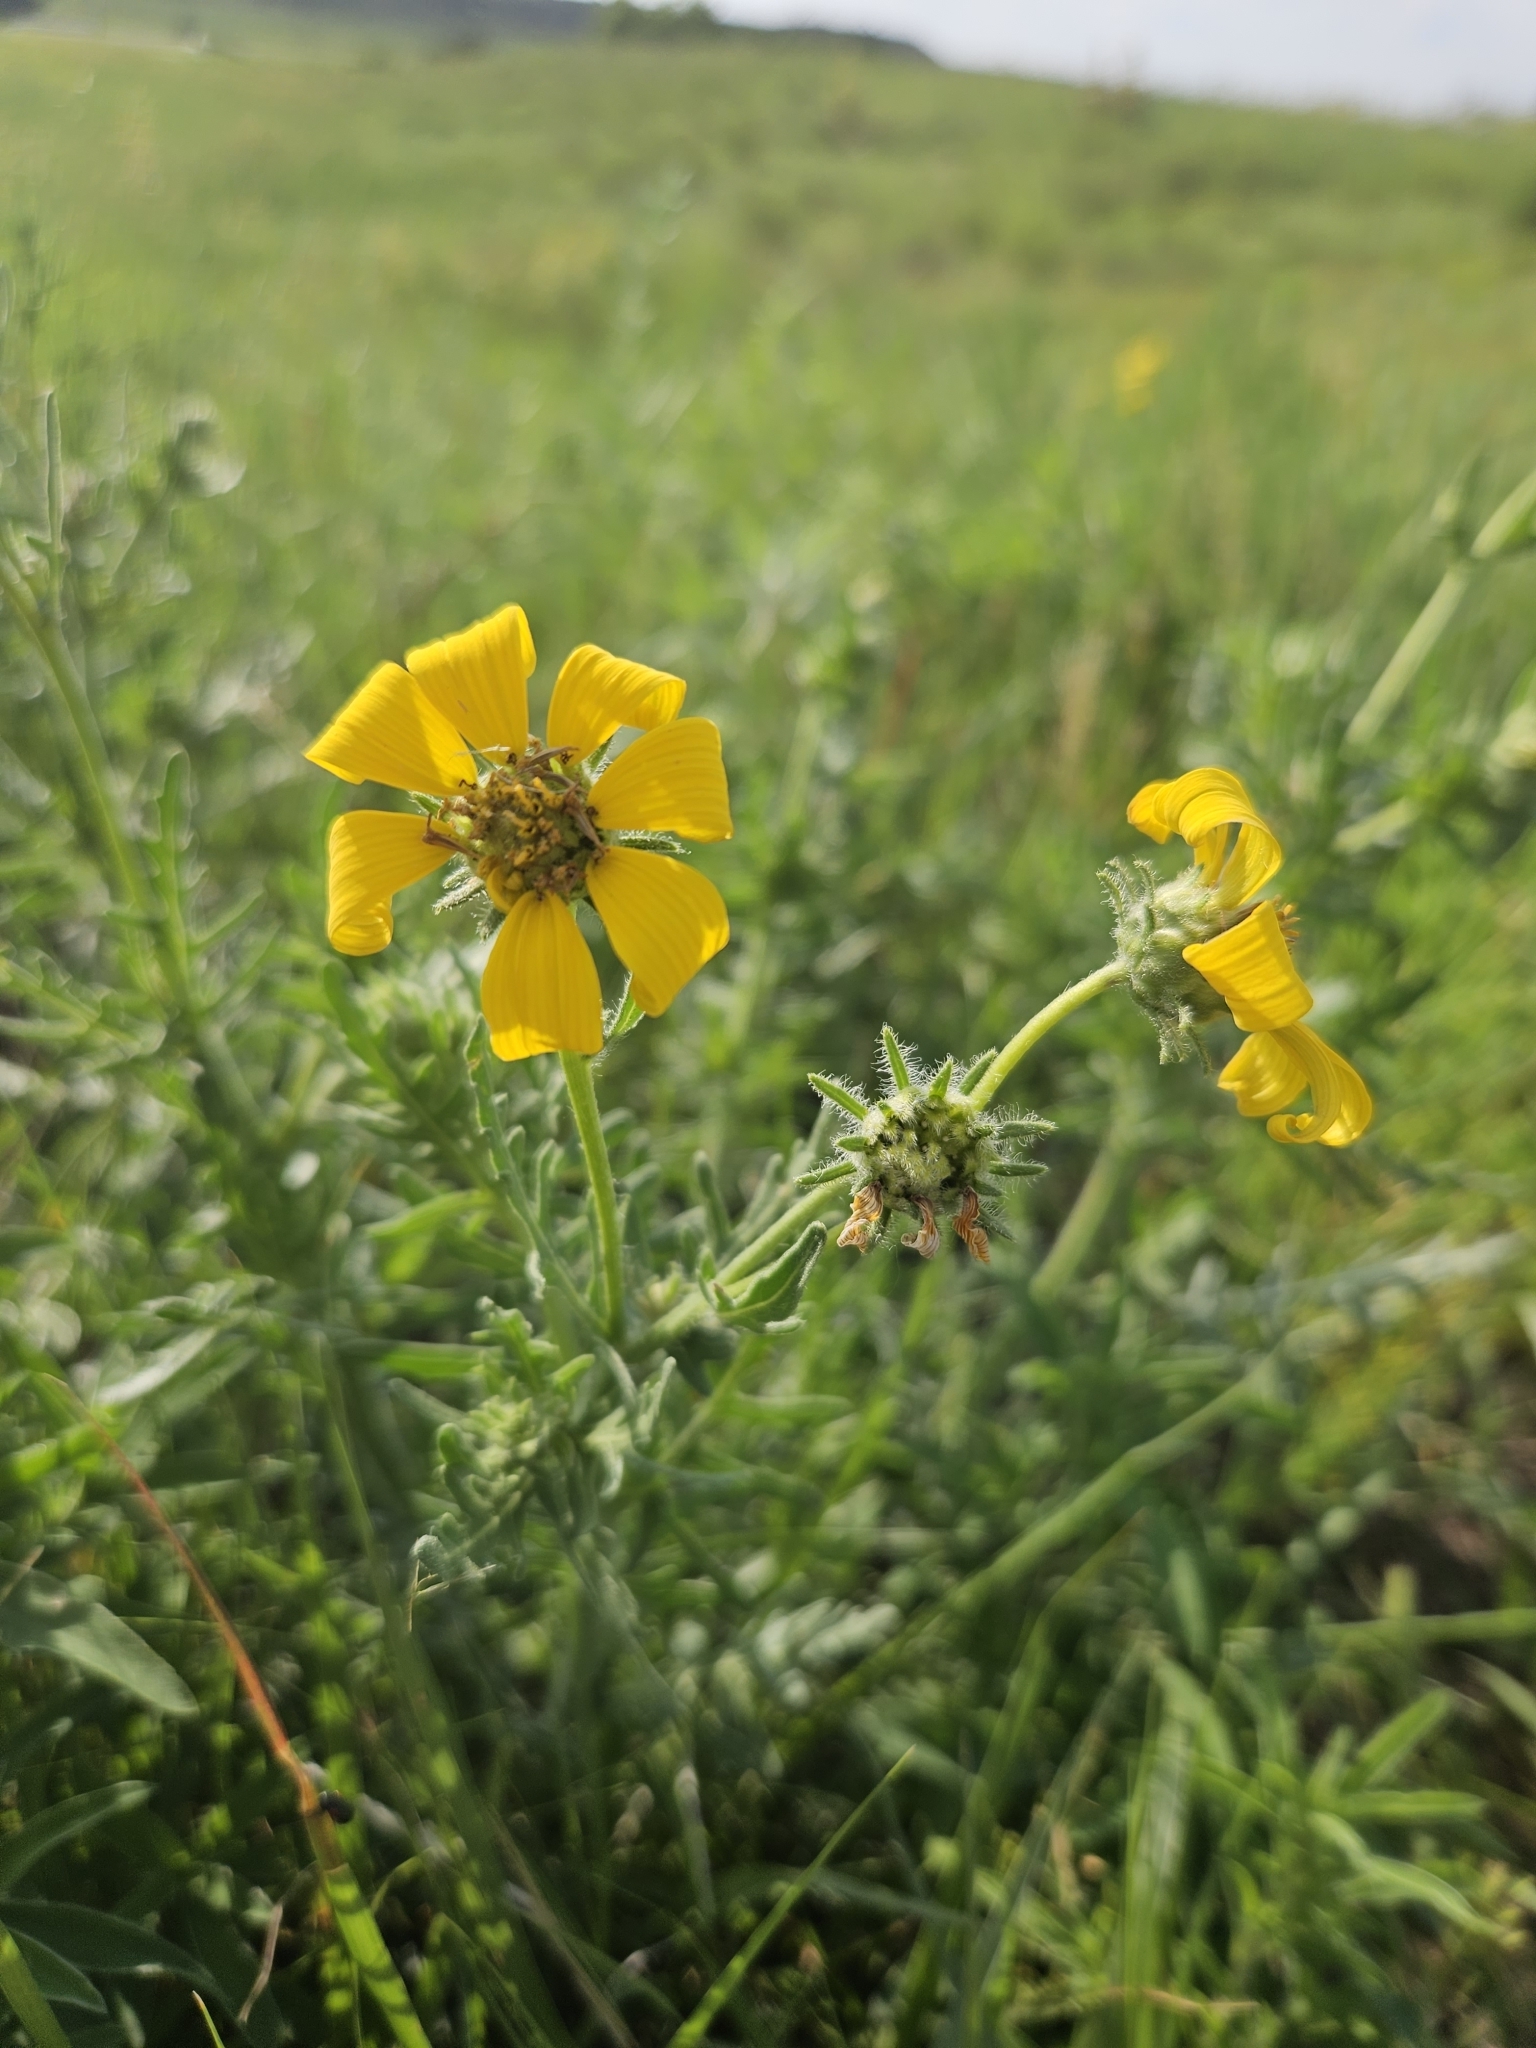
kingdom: Plantae
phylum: Tracheophyta
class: Magnoliopsida
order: Asterales
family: Asteraceae
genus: Engelmannia
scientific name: Engelmannia peristenia
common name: Engelmann's daisy
